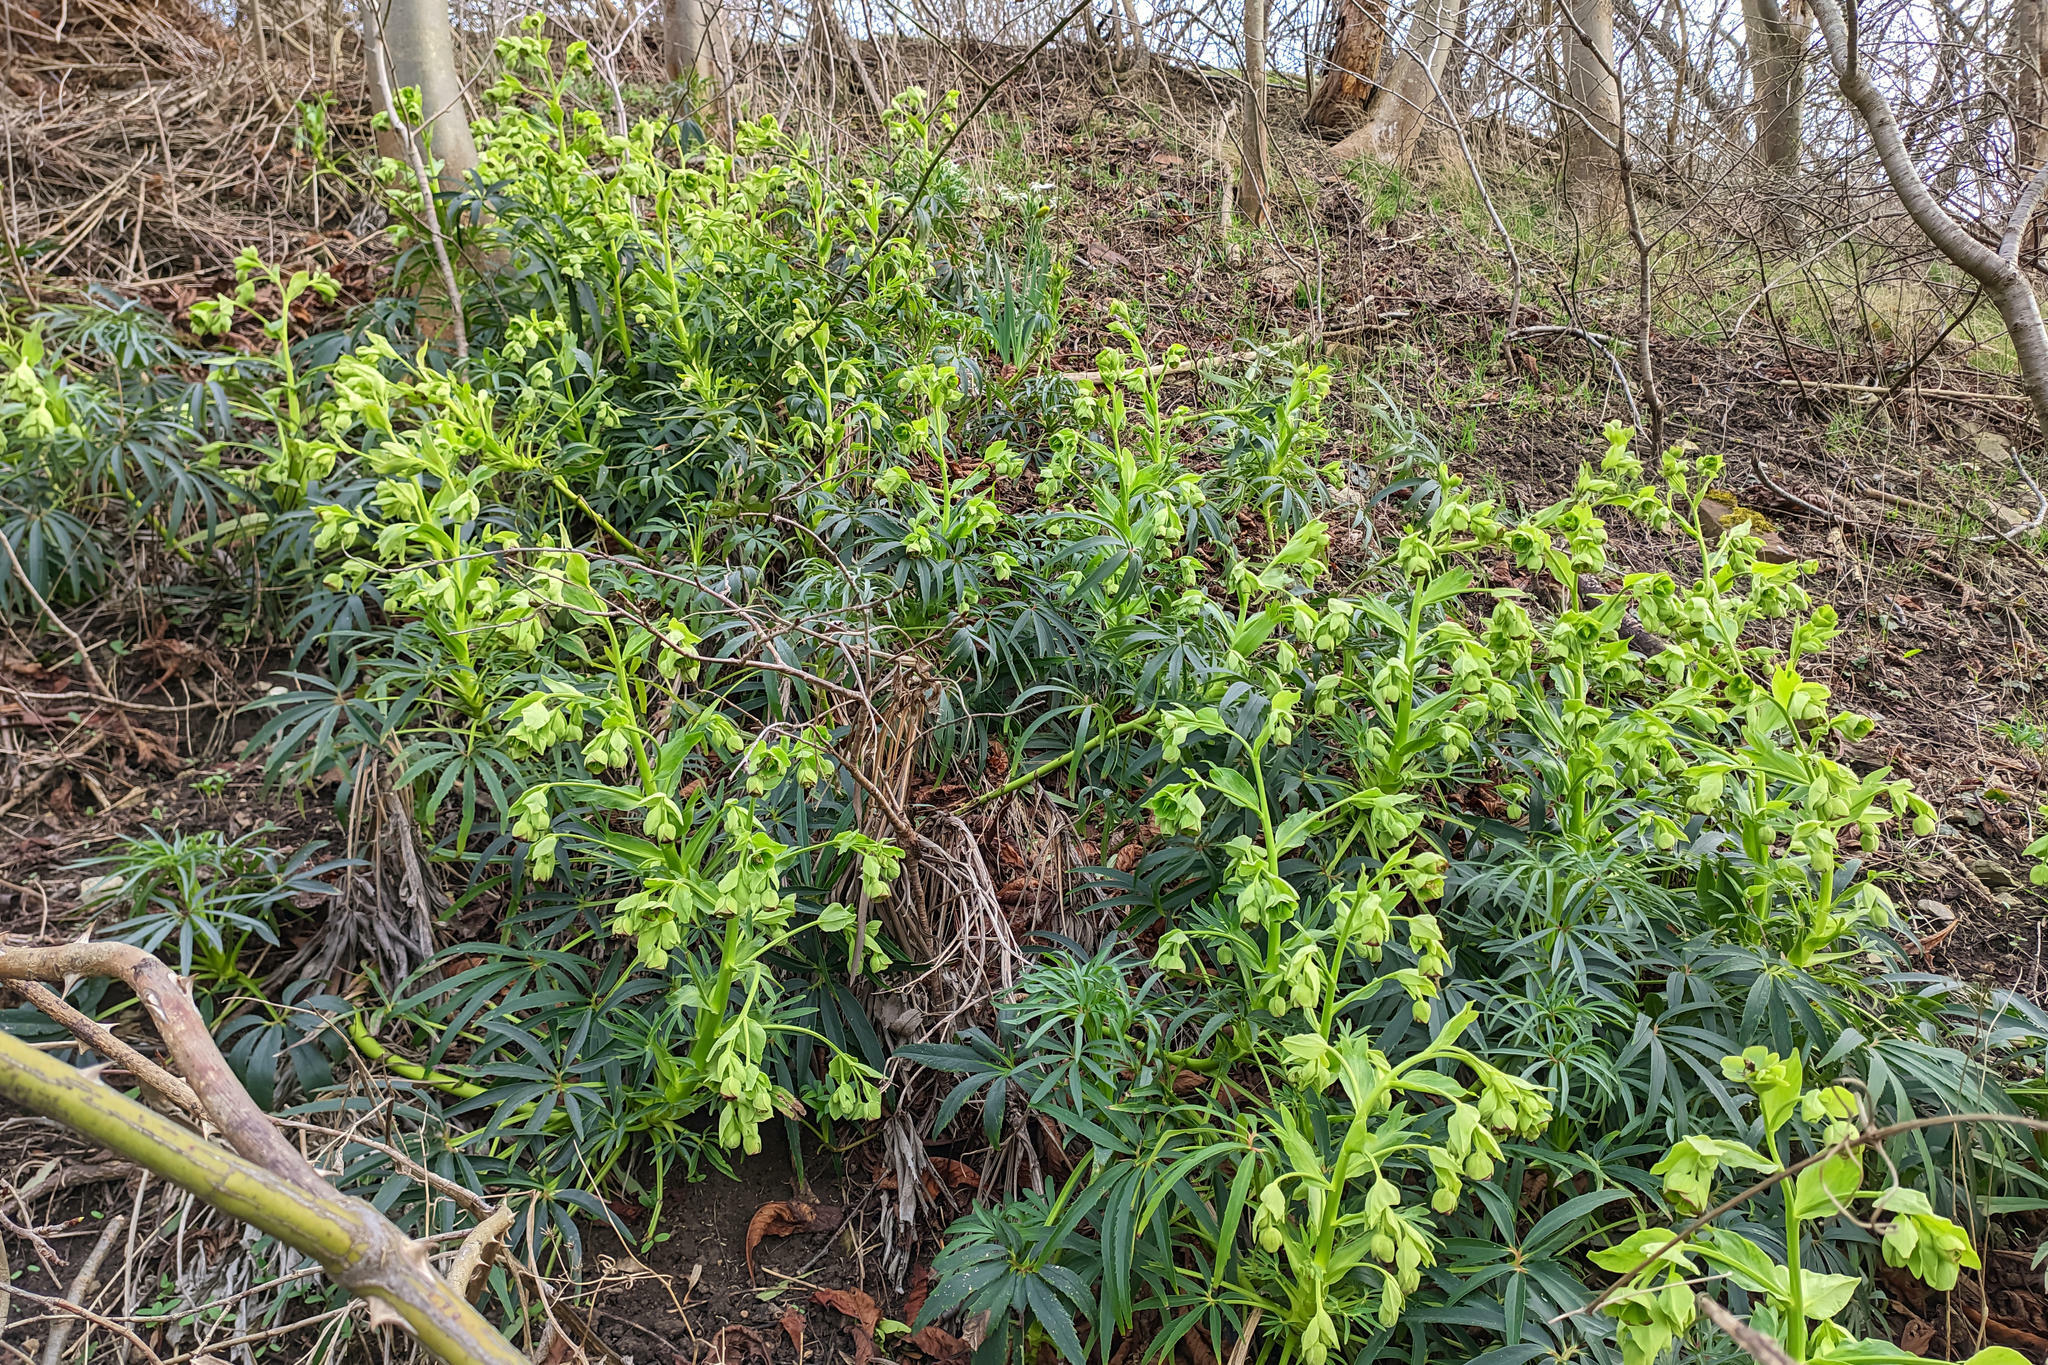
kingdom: Plantae
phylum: Tracheophyta
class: Magnoliopsida
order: Ranunculales
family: Ranunculaceae
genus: Helleborus
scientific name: Helleborus foetidus
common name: Stinking hellebore
